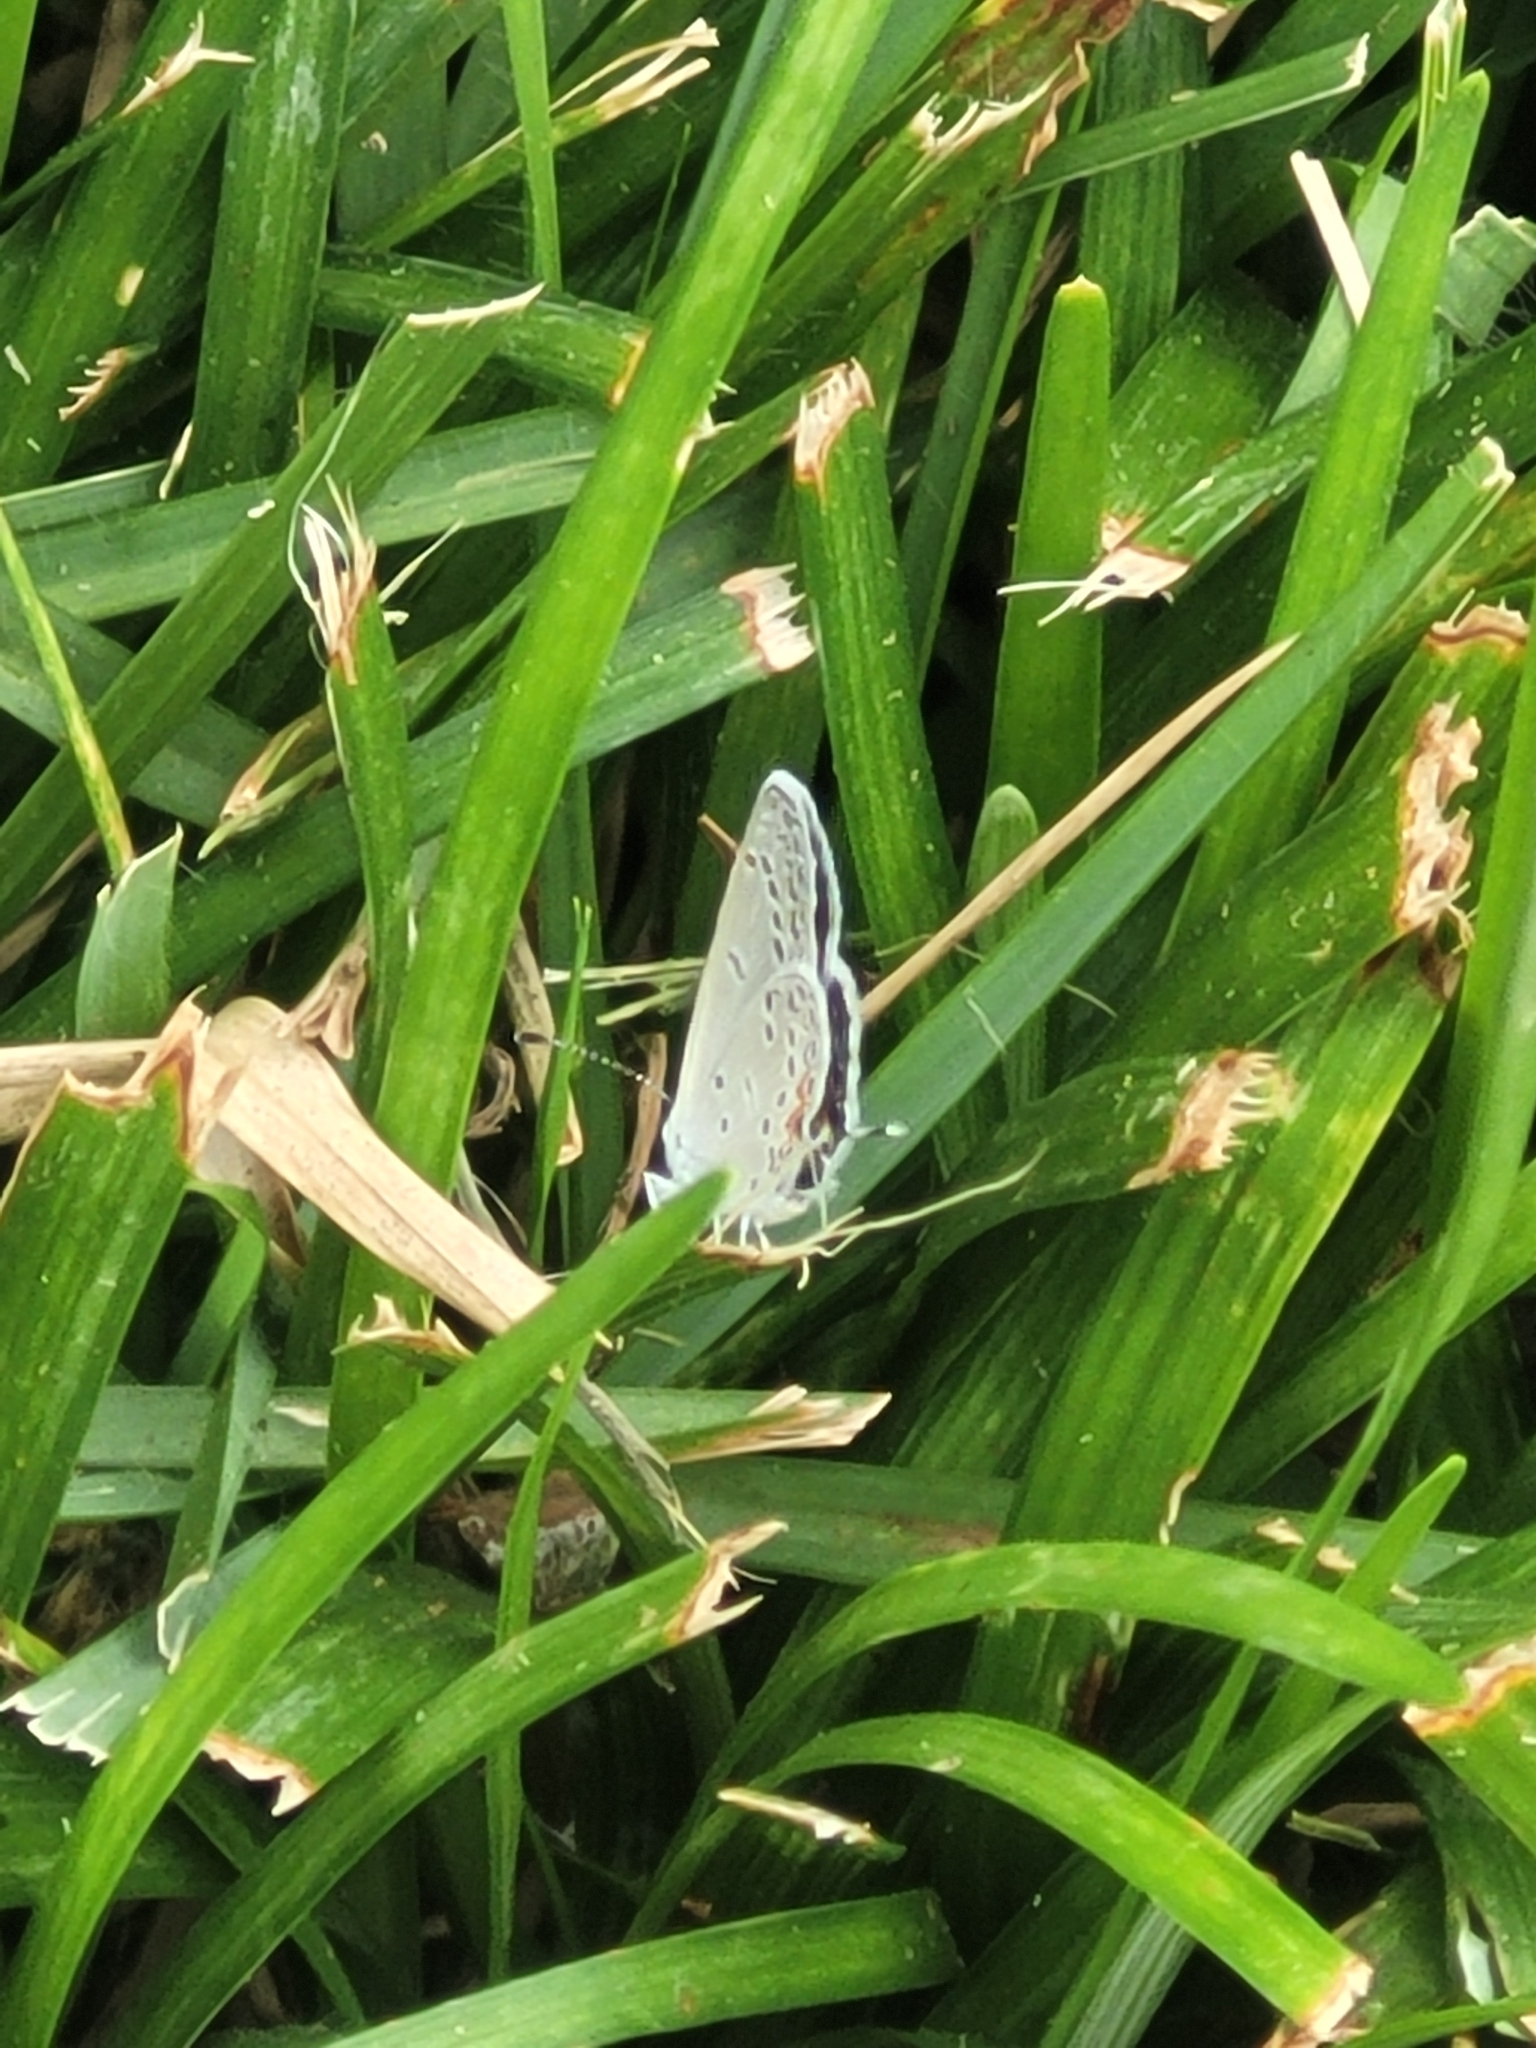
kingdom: Animalia
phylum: Arthropoda
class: Insecta
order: Lepidoptera
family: Lycaenidae
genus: Elkalyce
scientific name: Elkalyce comyntas
